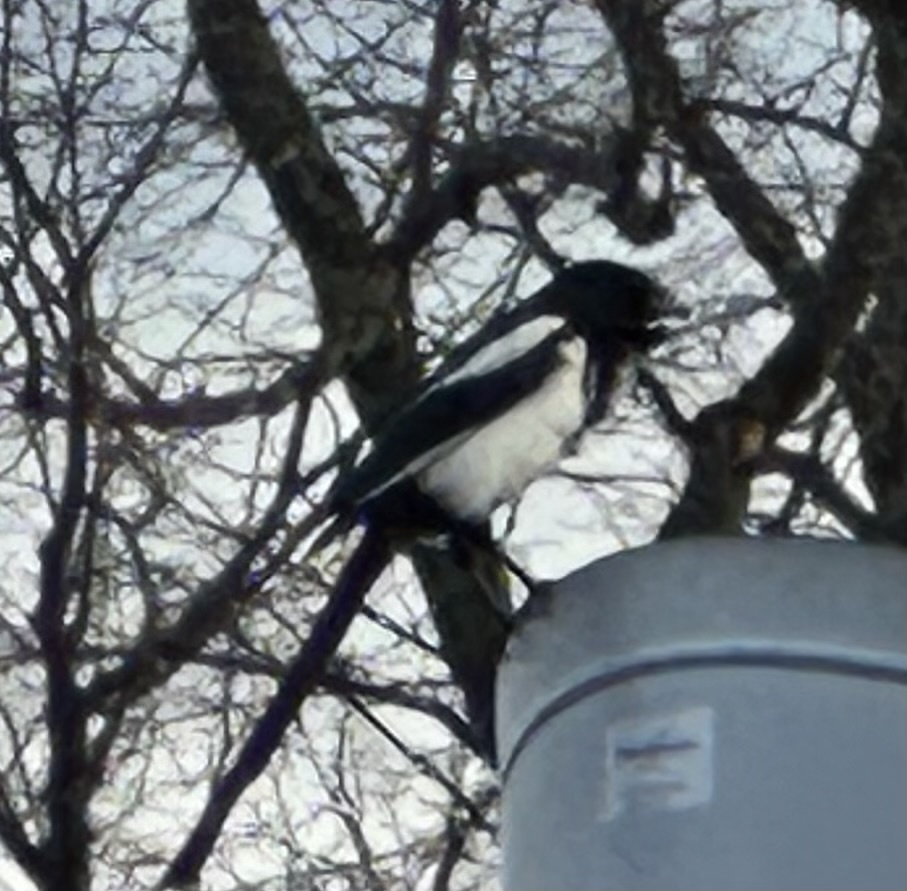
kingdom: Animalia
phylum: Chordata
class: Aves
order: Passeriformes
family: Corvidae
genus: Pica
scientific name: Pica pica
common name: Eurasian magpie
